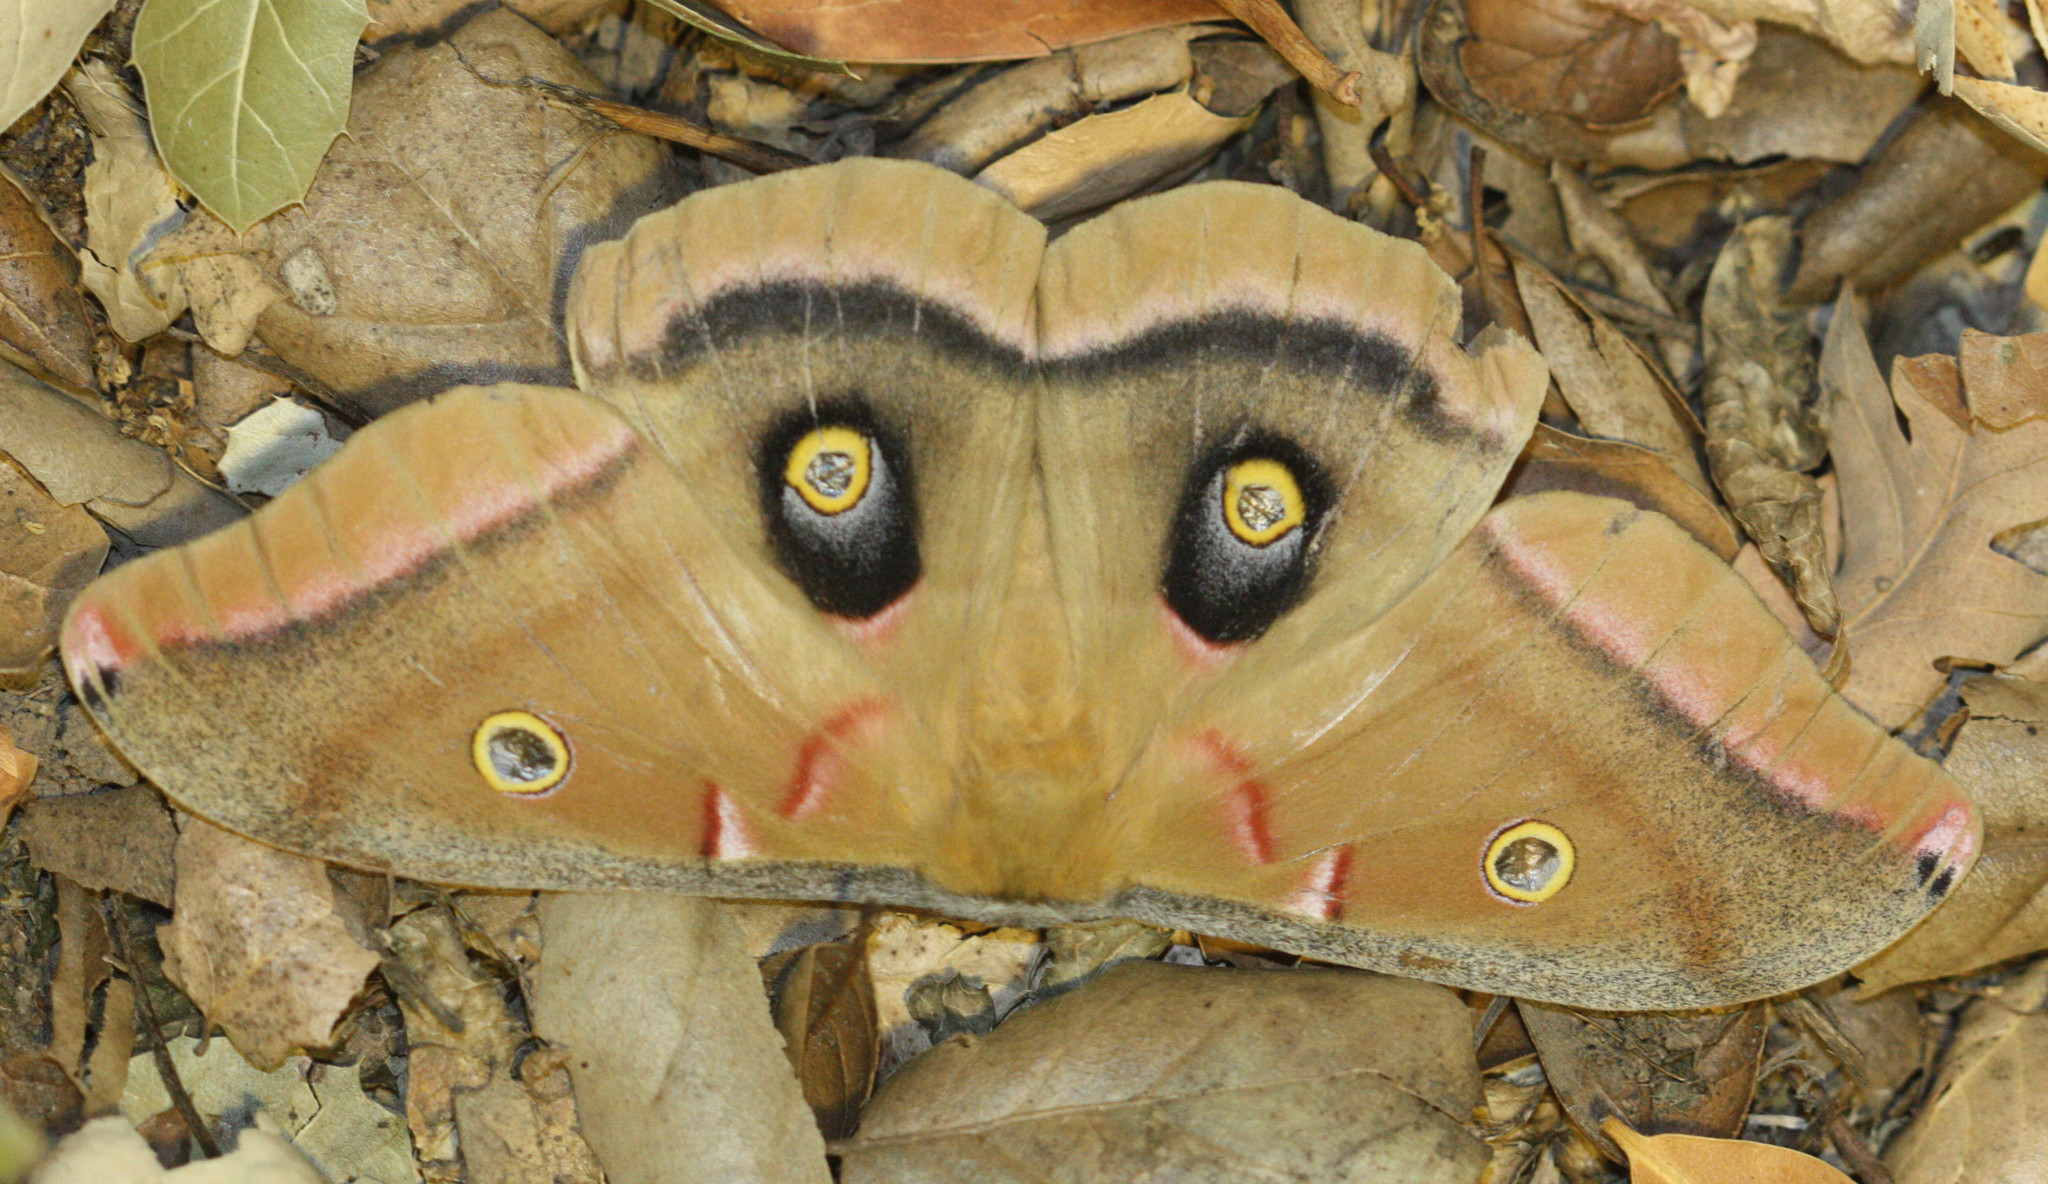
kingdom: Animalia
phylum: Arthropoda
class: Insecta
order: Lepidoptera
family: Saturniidae
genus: Antheraea
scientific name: Antheraea polyphemus
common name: Polyphemus moth
